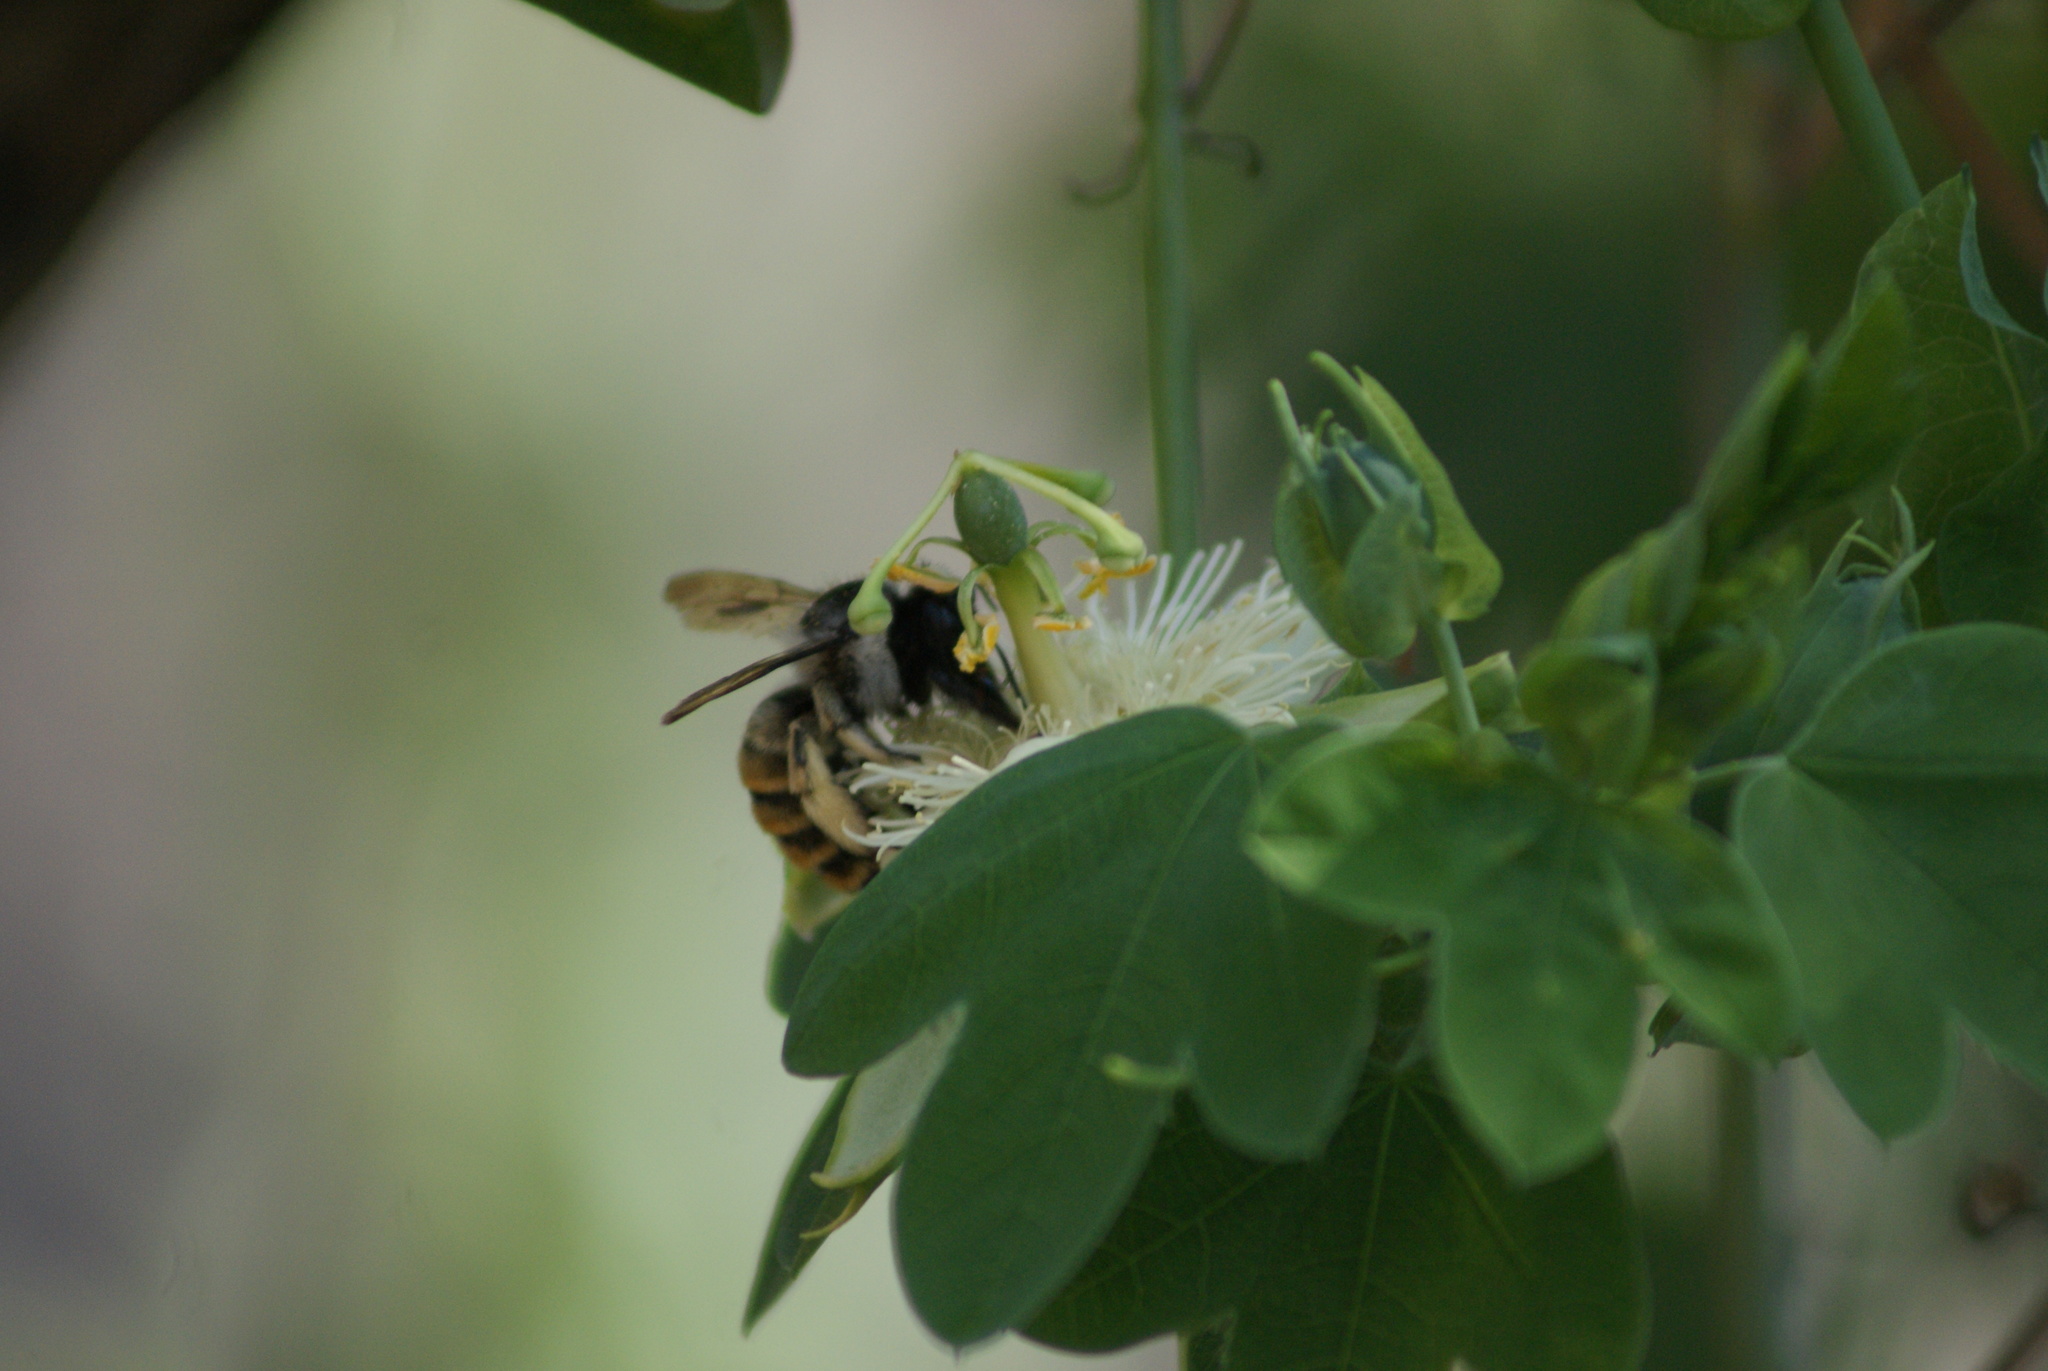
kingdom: Animalia
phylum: Arthropoda
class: Insecta
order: Hymenoptera
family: Apidae
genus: Xylocopa
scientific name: Xylocopa tabaniformis
